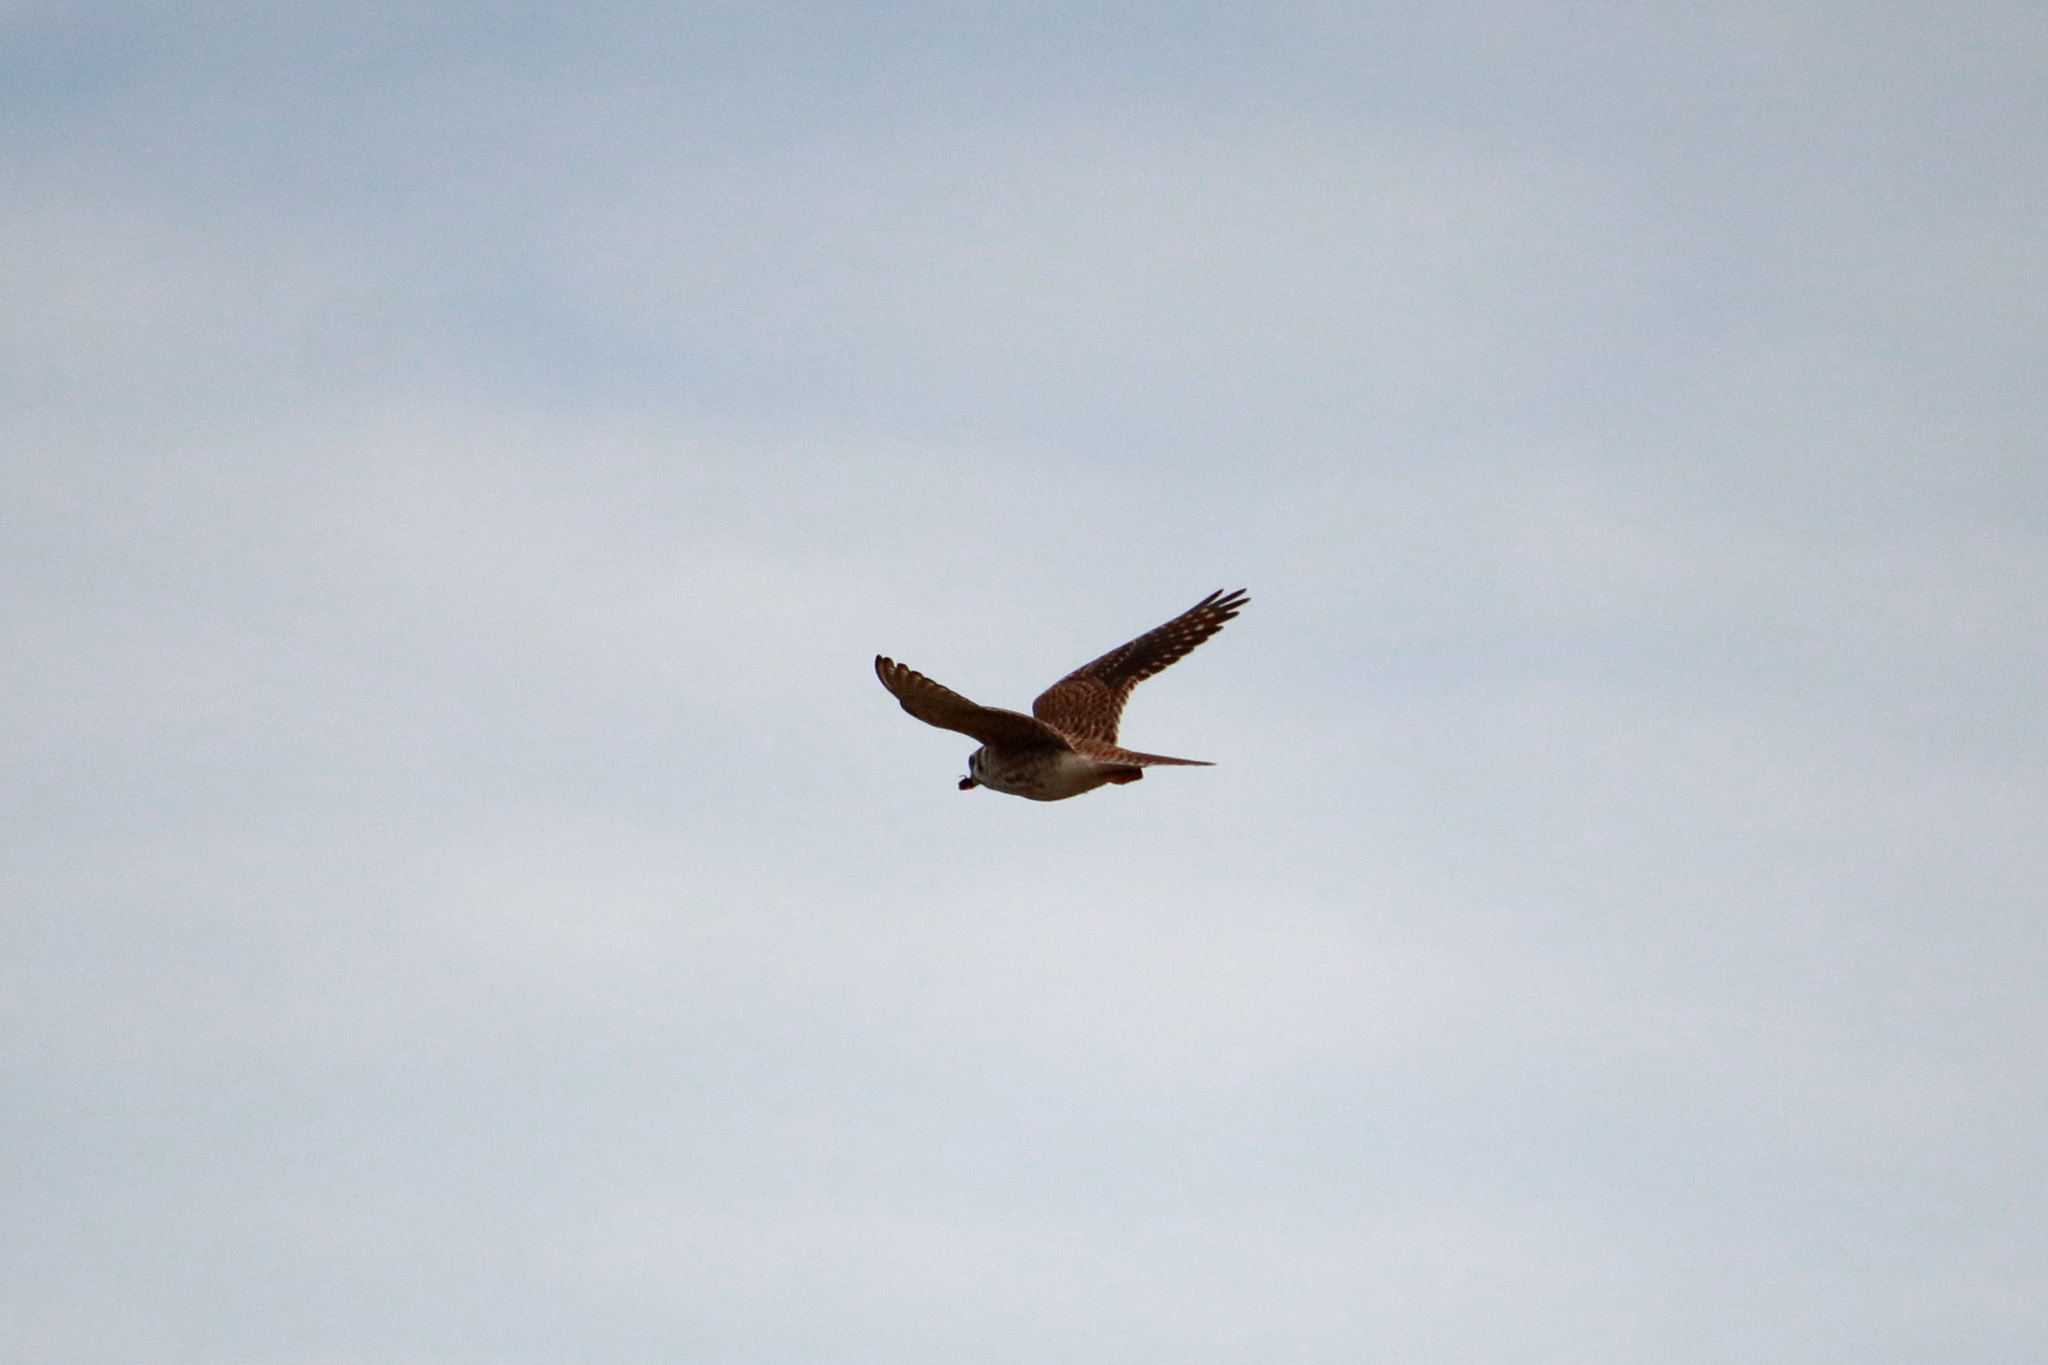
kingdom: Animalia
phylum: Chordata
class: Aves
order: Falconiformes
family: Falconidae
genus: Falco
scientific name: Falco sparverius
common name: American kestrel
